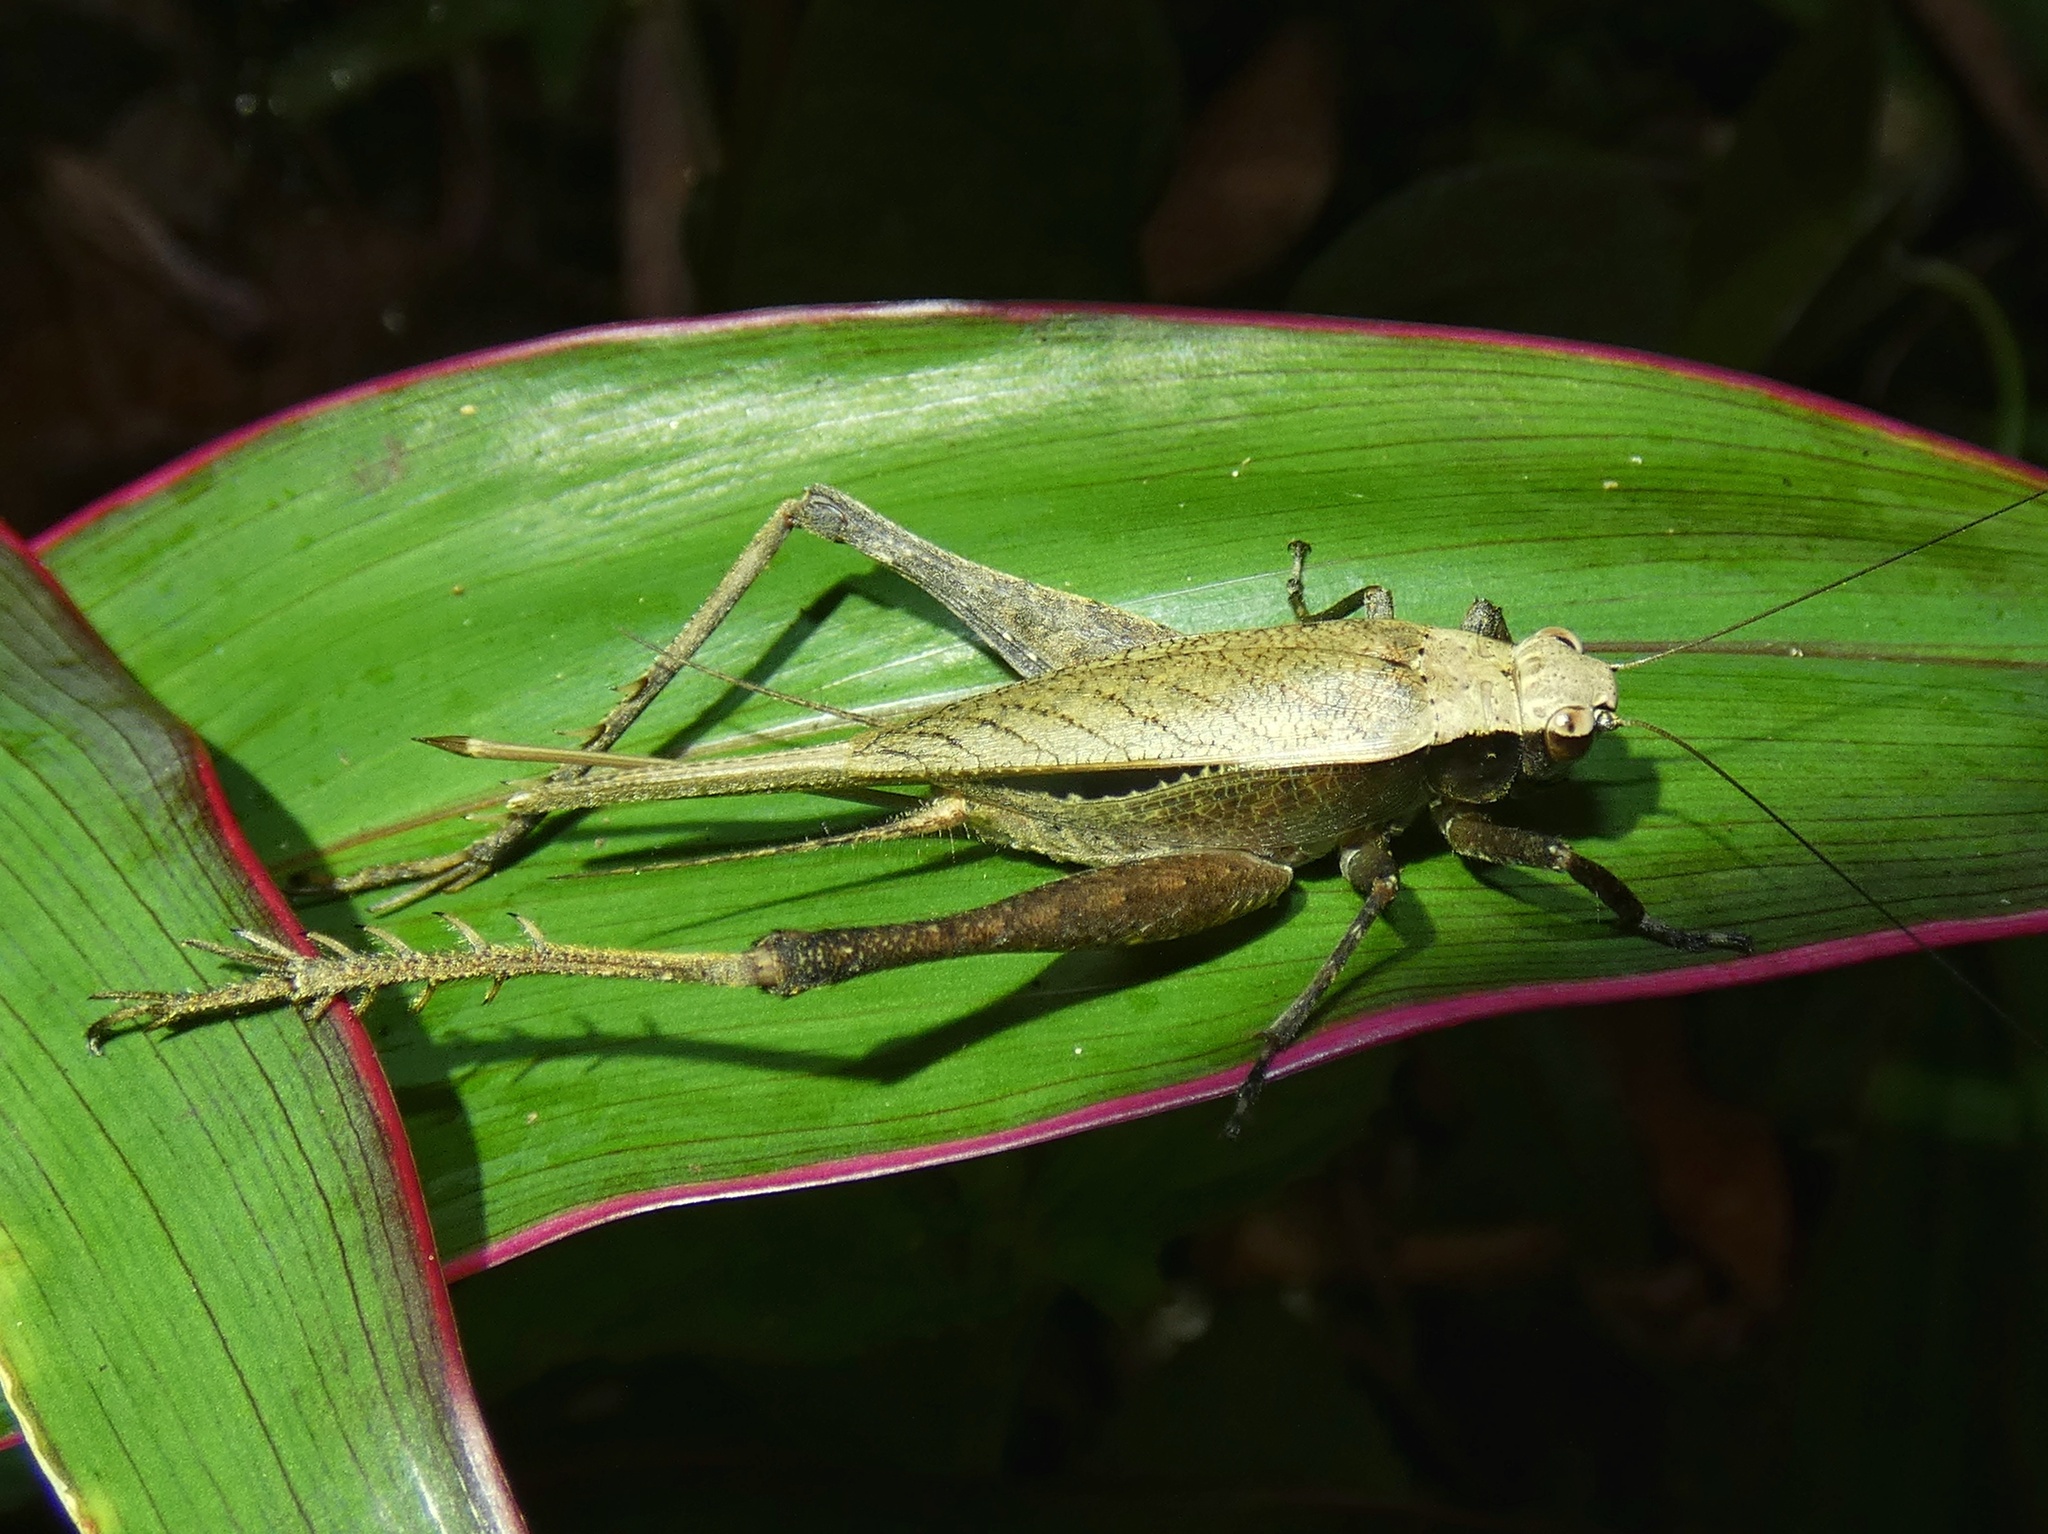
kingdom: Animalia
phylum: Arthropoda
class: Insecta
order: Orthoptera
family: Gryllidae
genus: Eneoptera
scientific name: Eneoptera surinamensis
